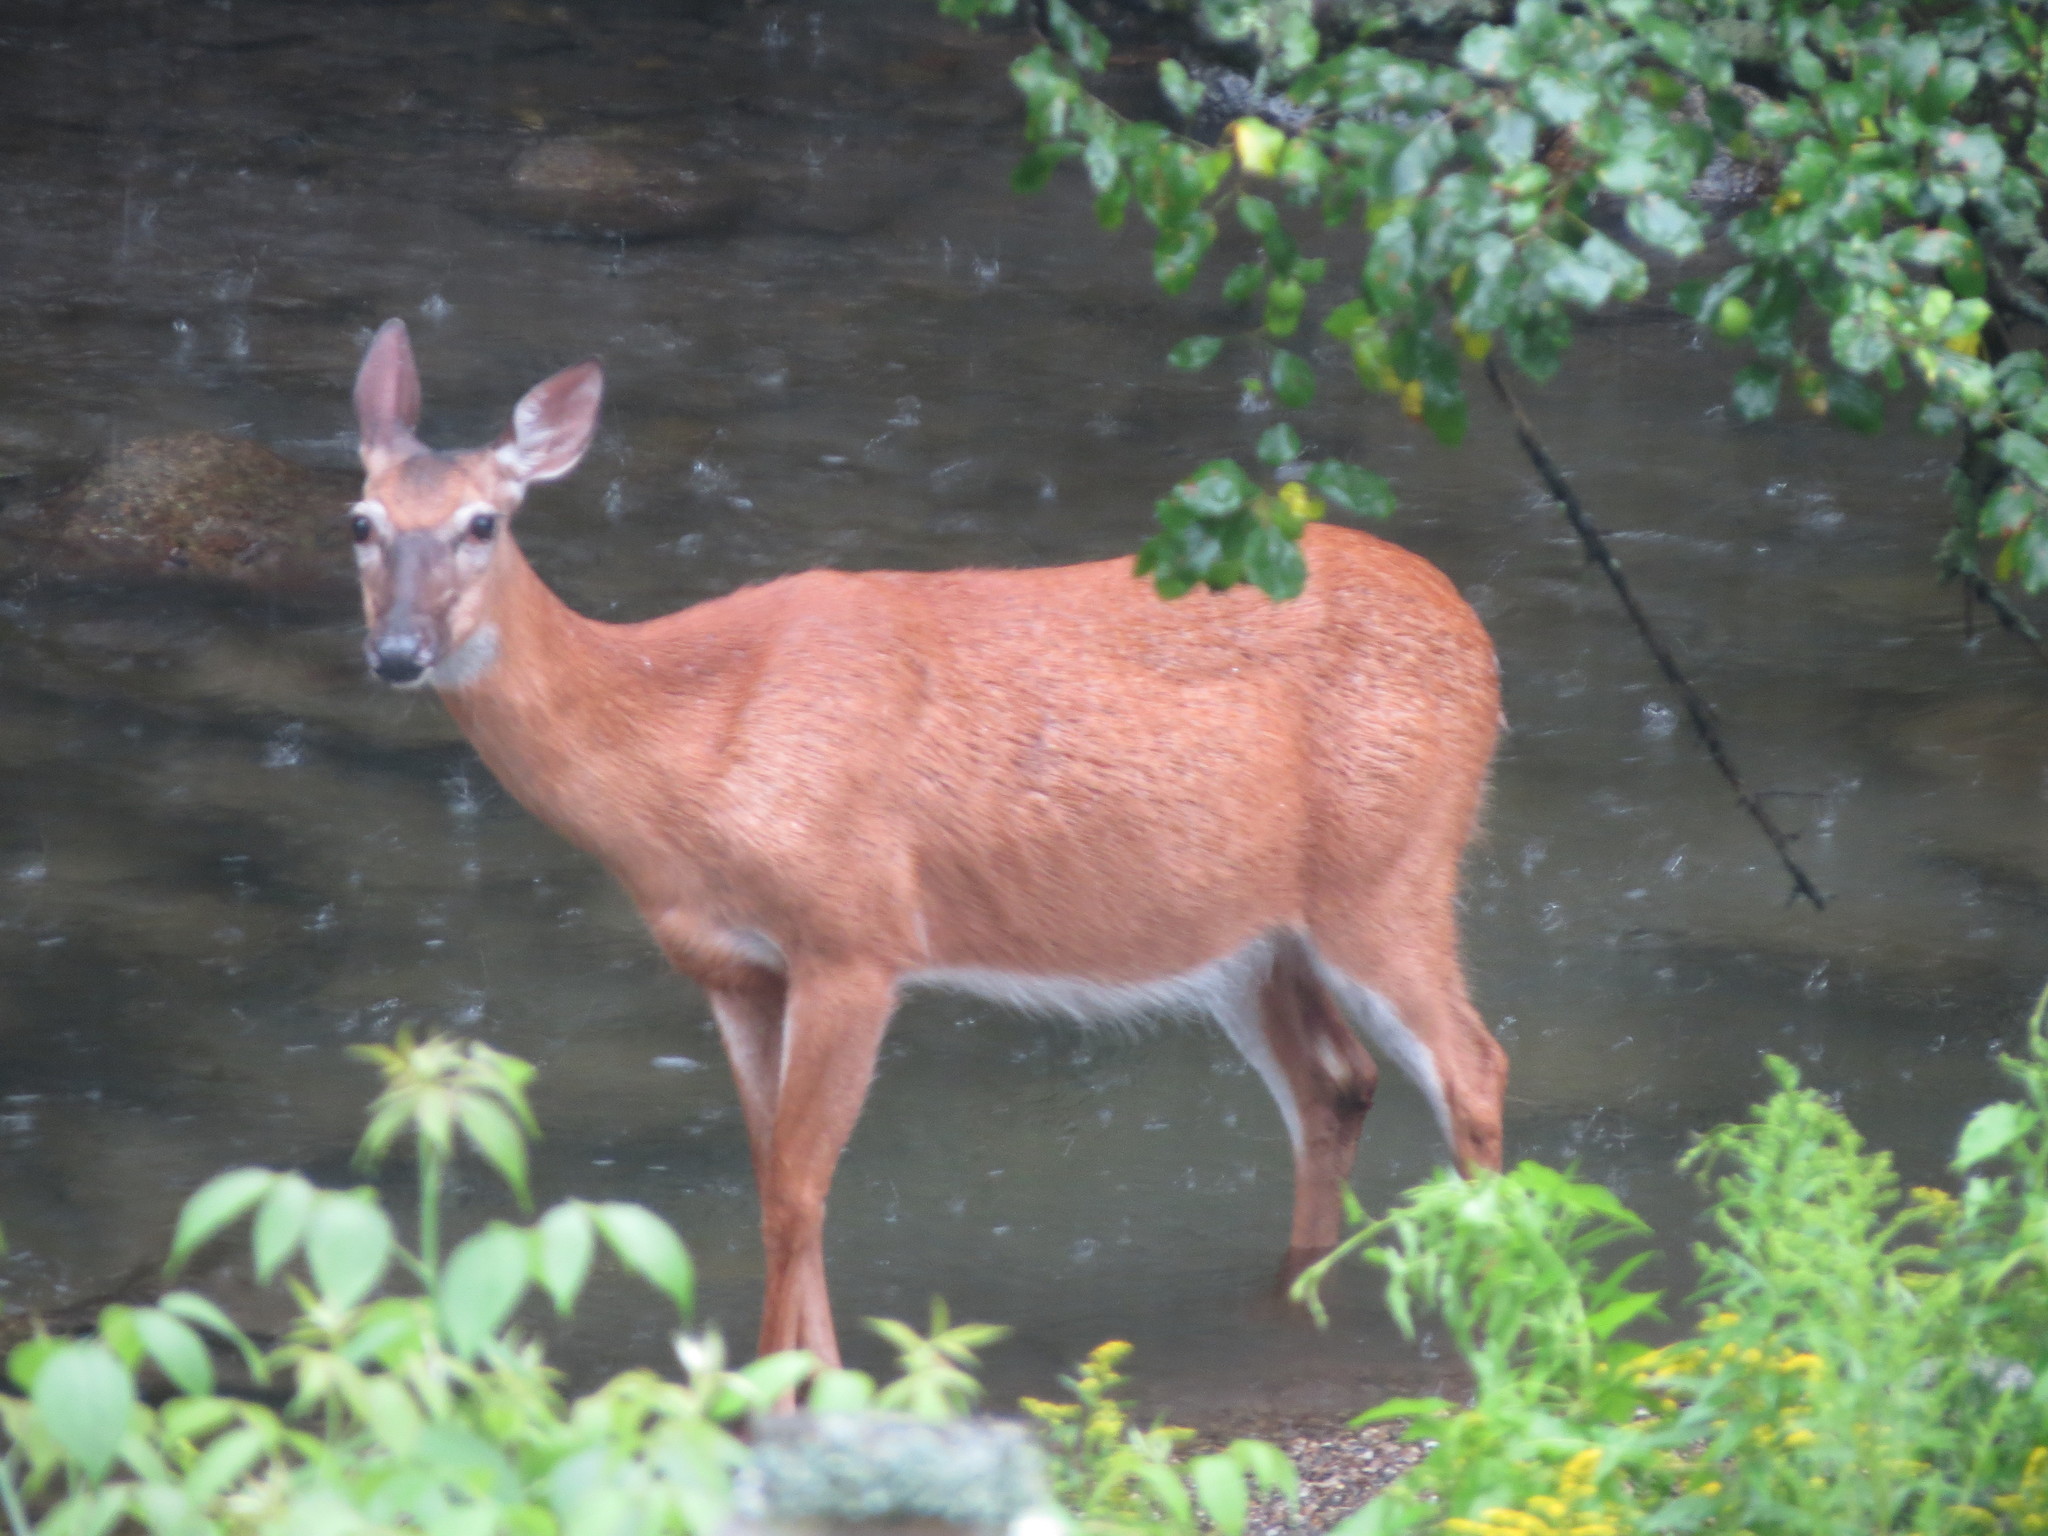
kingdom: Animalia
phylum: Chordata
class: Mammalia
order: Artiodactyla
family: Cervidae
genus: Odocoileus
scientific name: Odocoileus virginianus
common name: White-tailed deer
